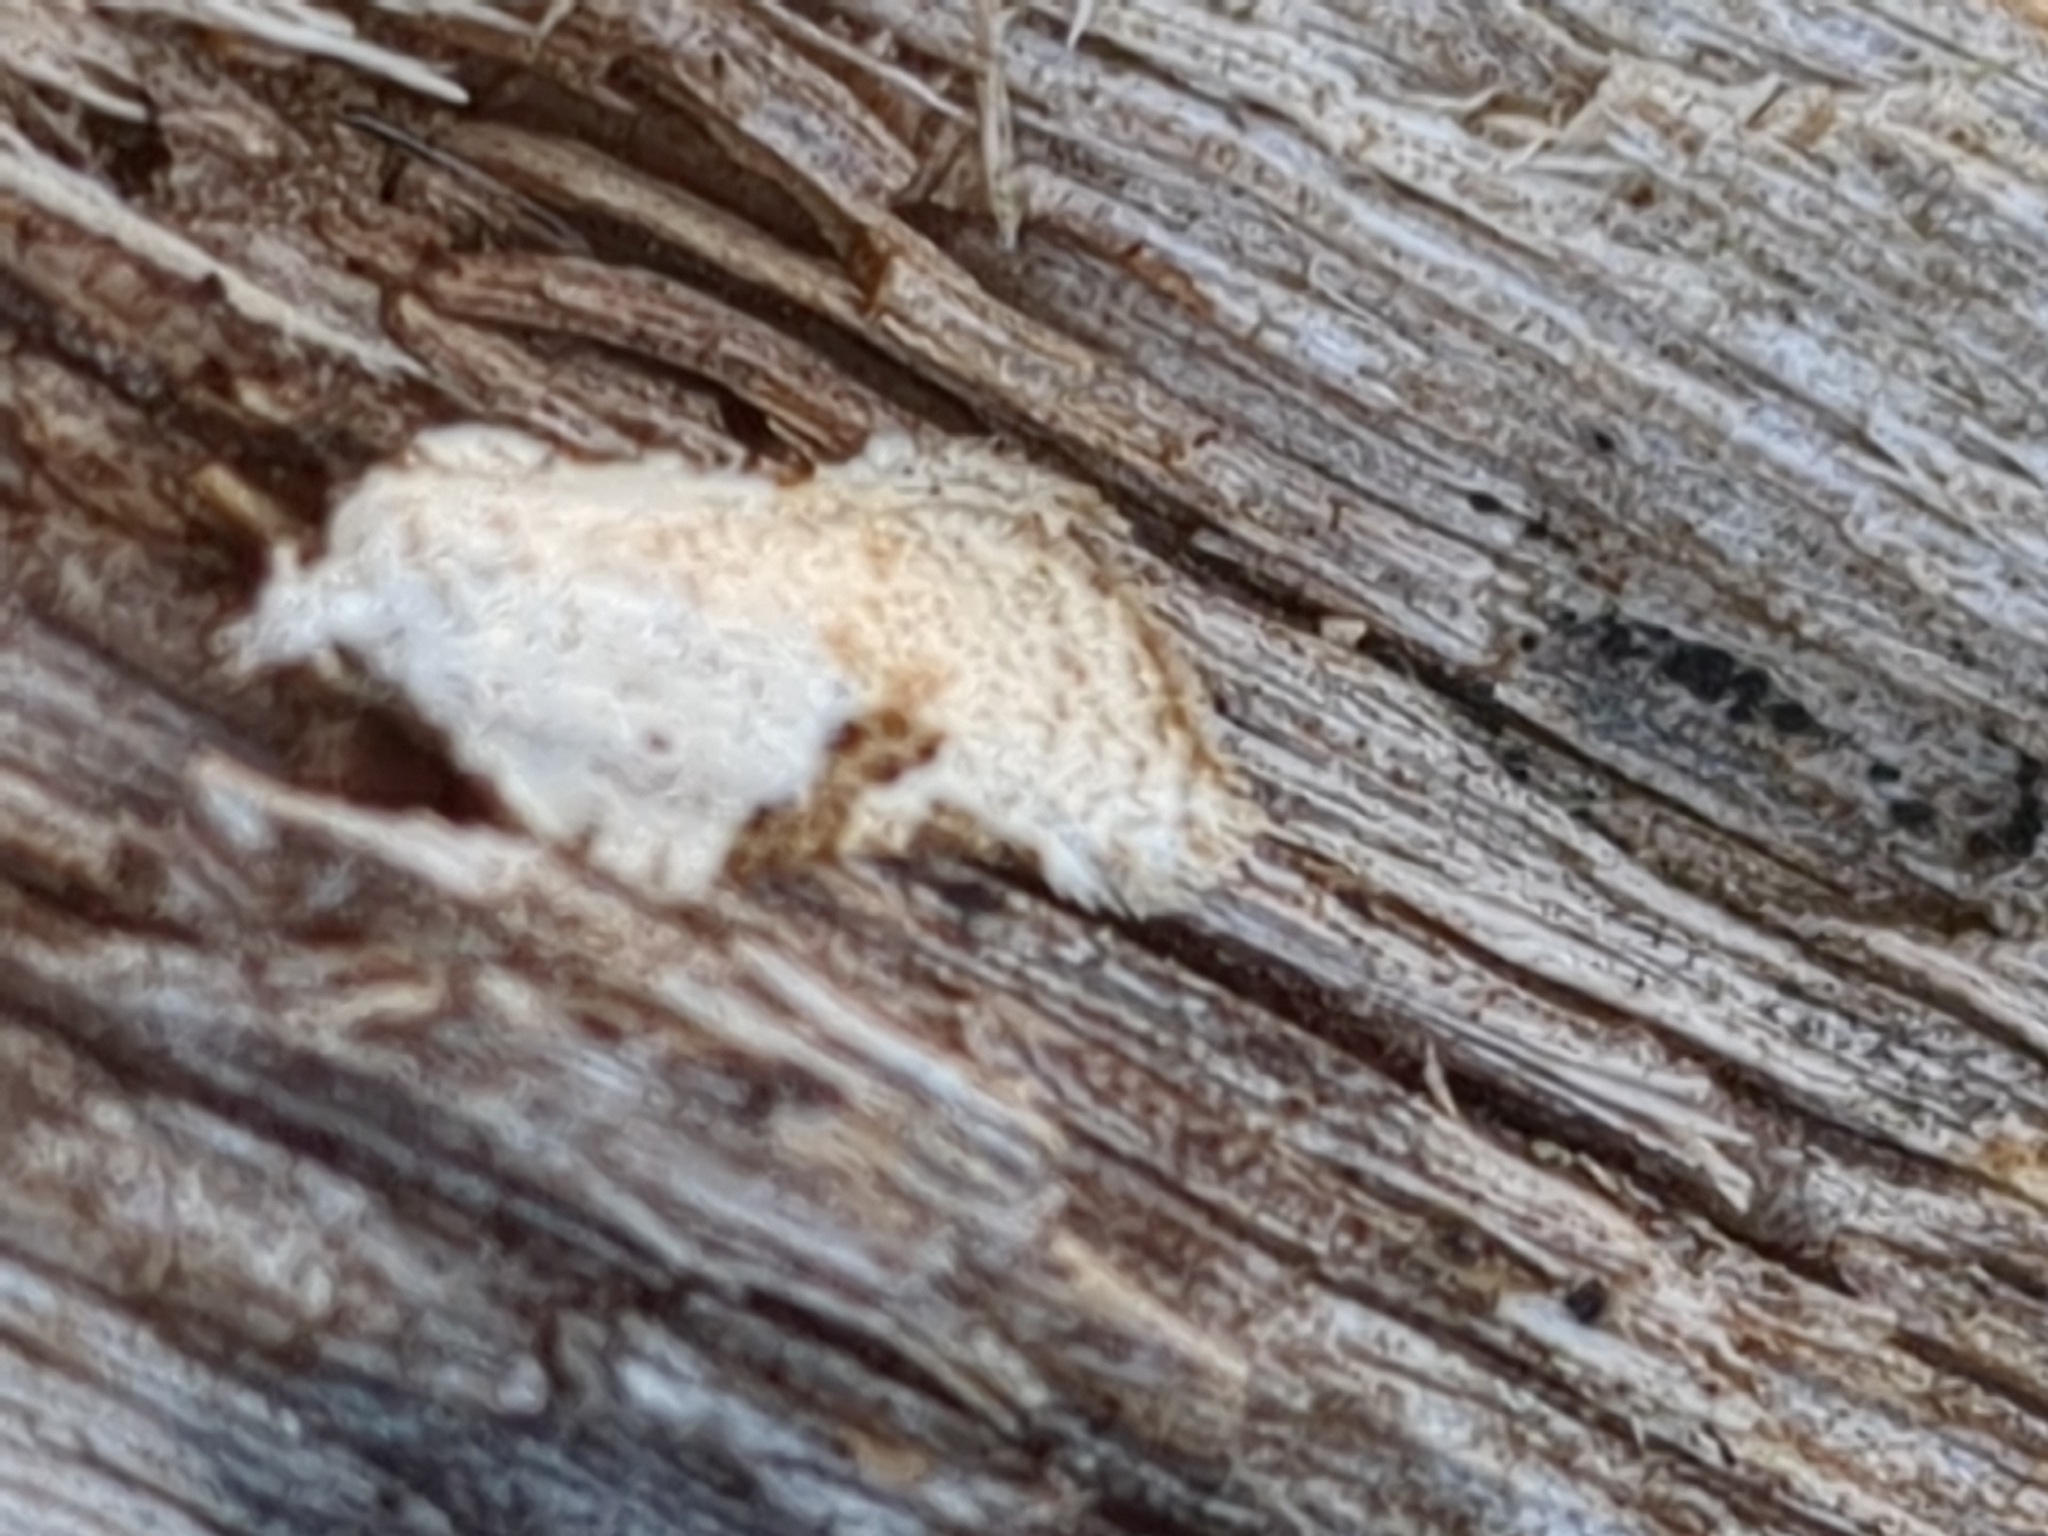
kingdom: Animalia
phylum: Arthropoda
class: Insecta
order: Lepidoptera
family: Tortricidae
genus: Acleris
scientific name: Acleris subnivana
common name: Bent-winged acleris moth
